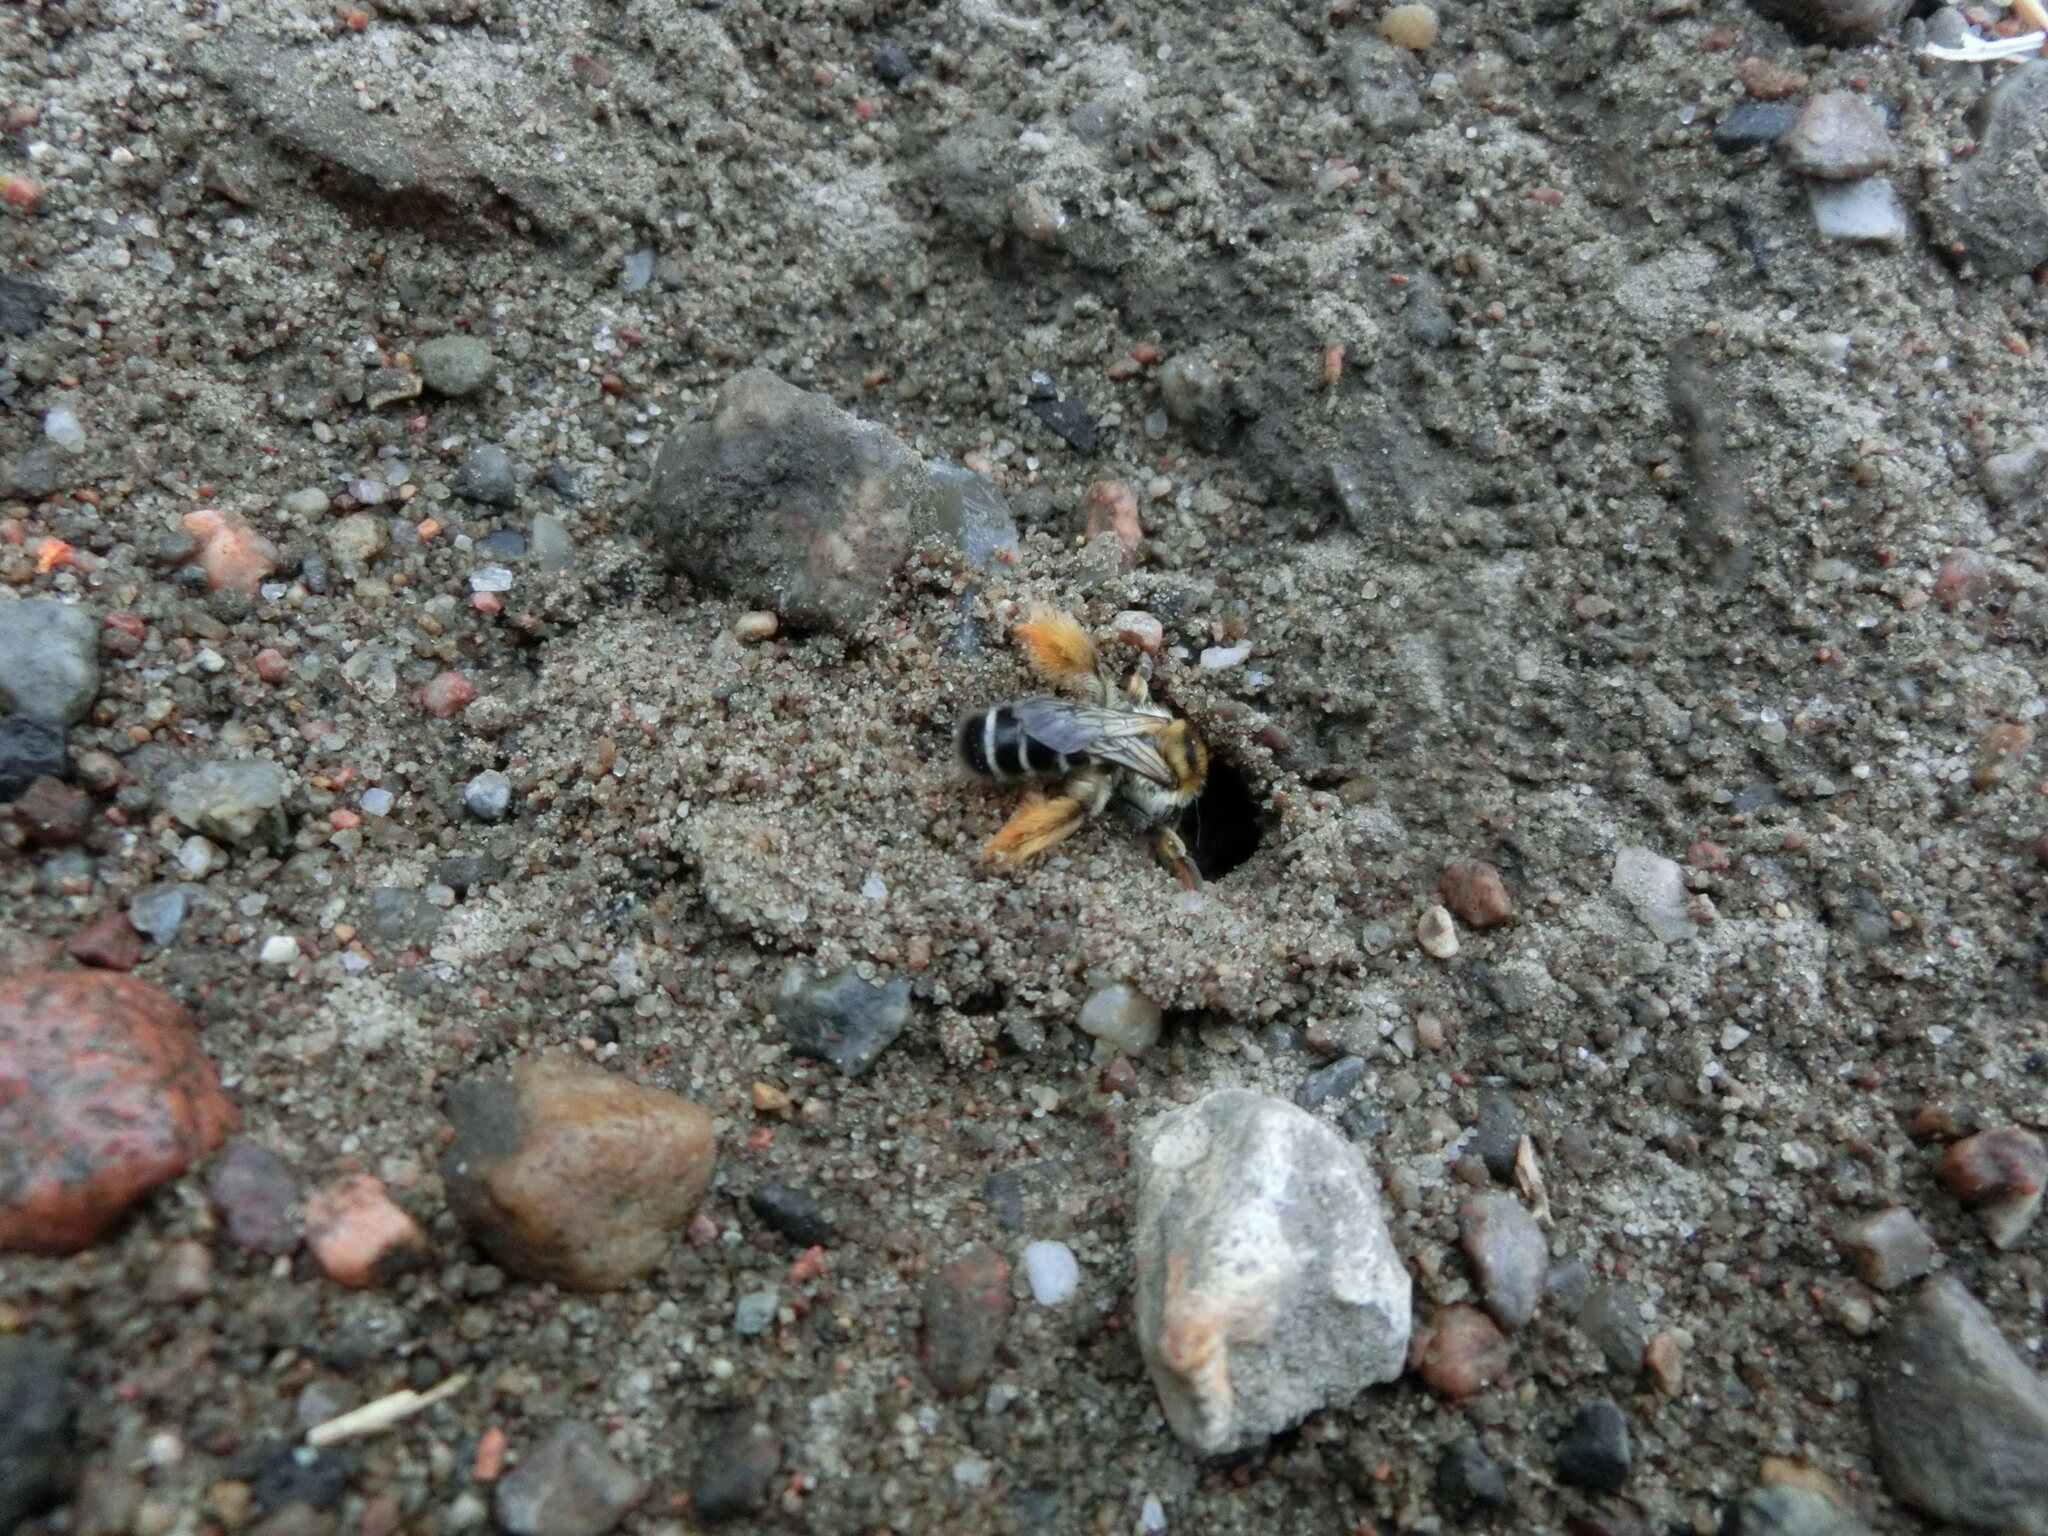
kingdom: Animalia
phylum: Arthropoda
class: Insecta
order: Hymenoptera
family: Melittidae
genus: Dasypoda
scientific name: Dasypoda hirtipes
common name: Pantaloon bee
